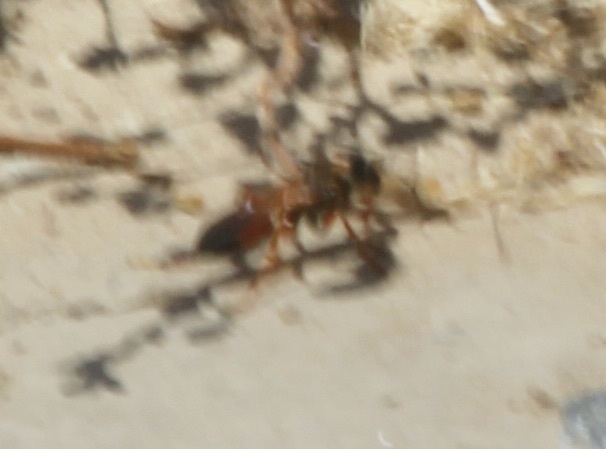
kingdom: Animalia
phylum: Arthropoda
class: Insecta
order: Hymenoptera
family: Sphecidae
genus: Sphex
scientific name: Sphex ichneumoneus
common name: Great golden digger wasp
